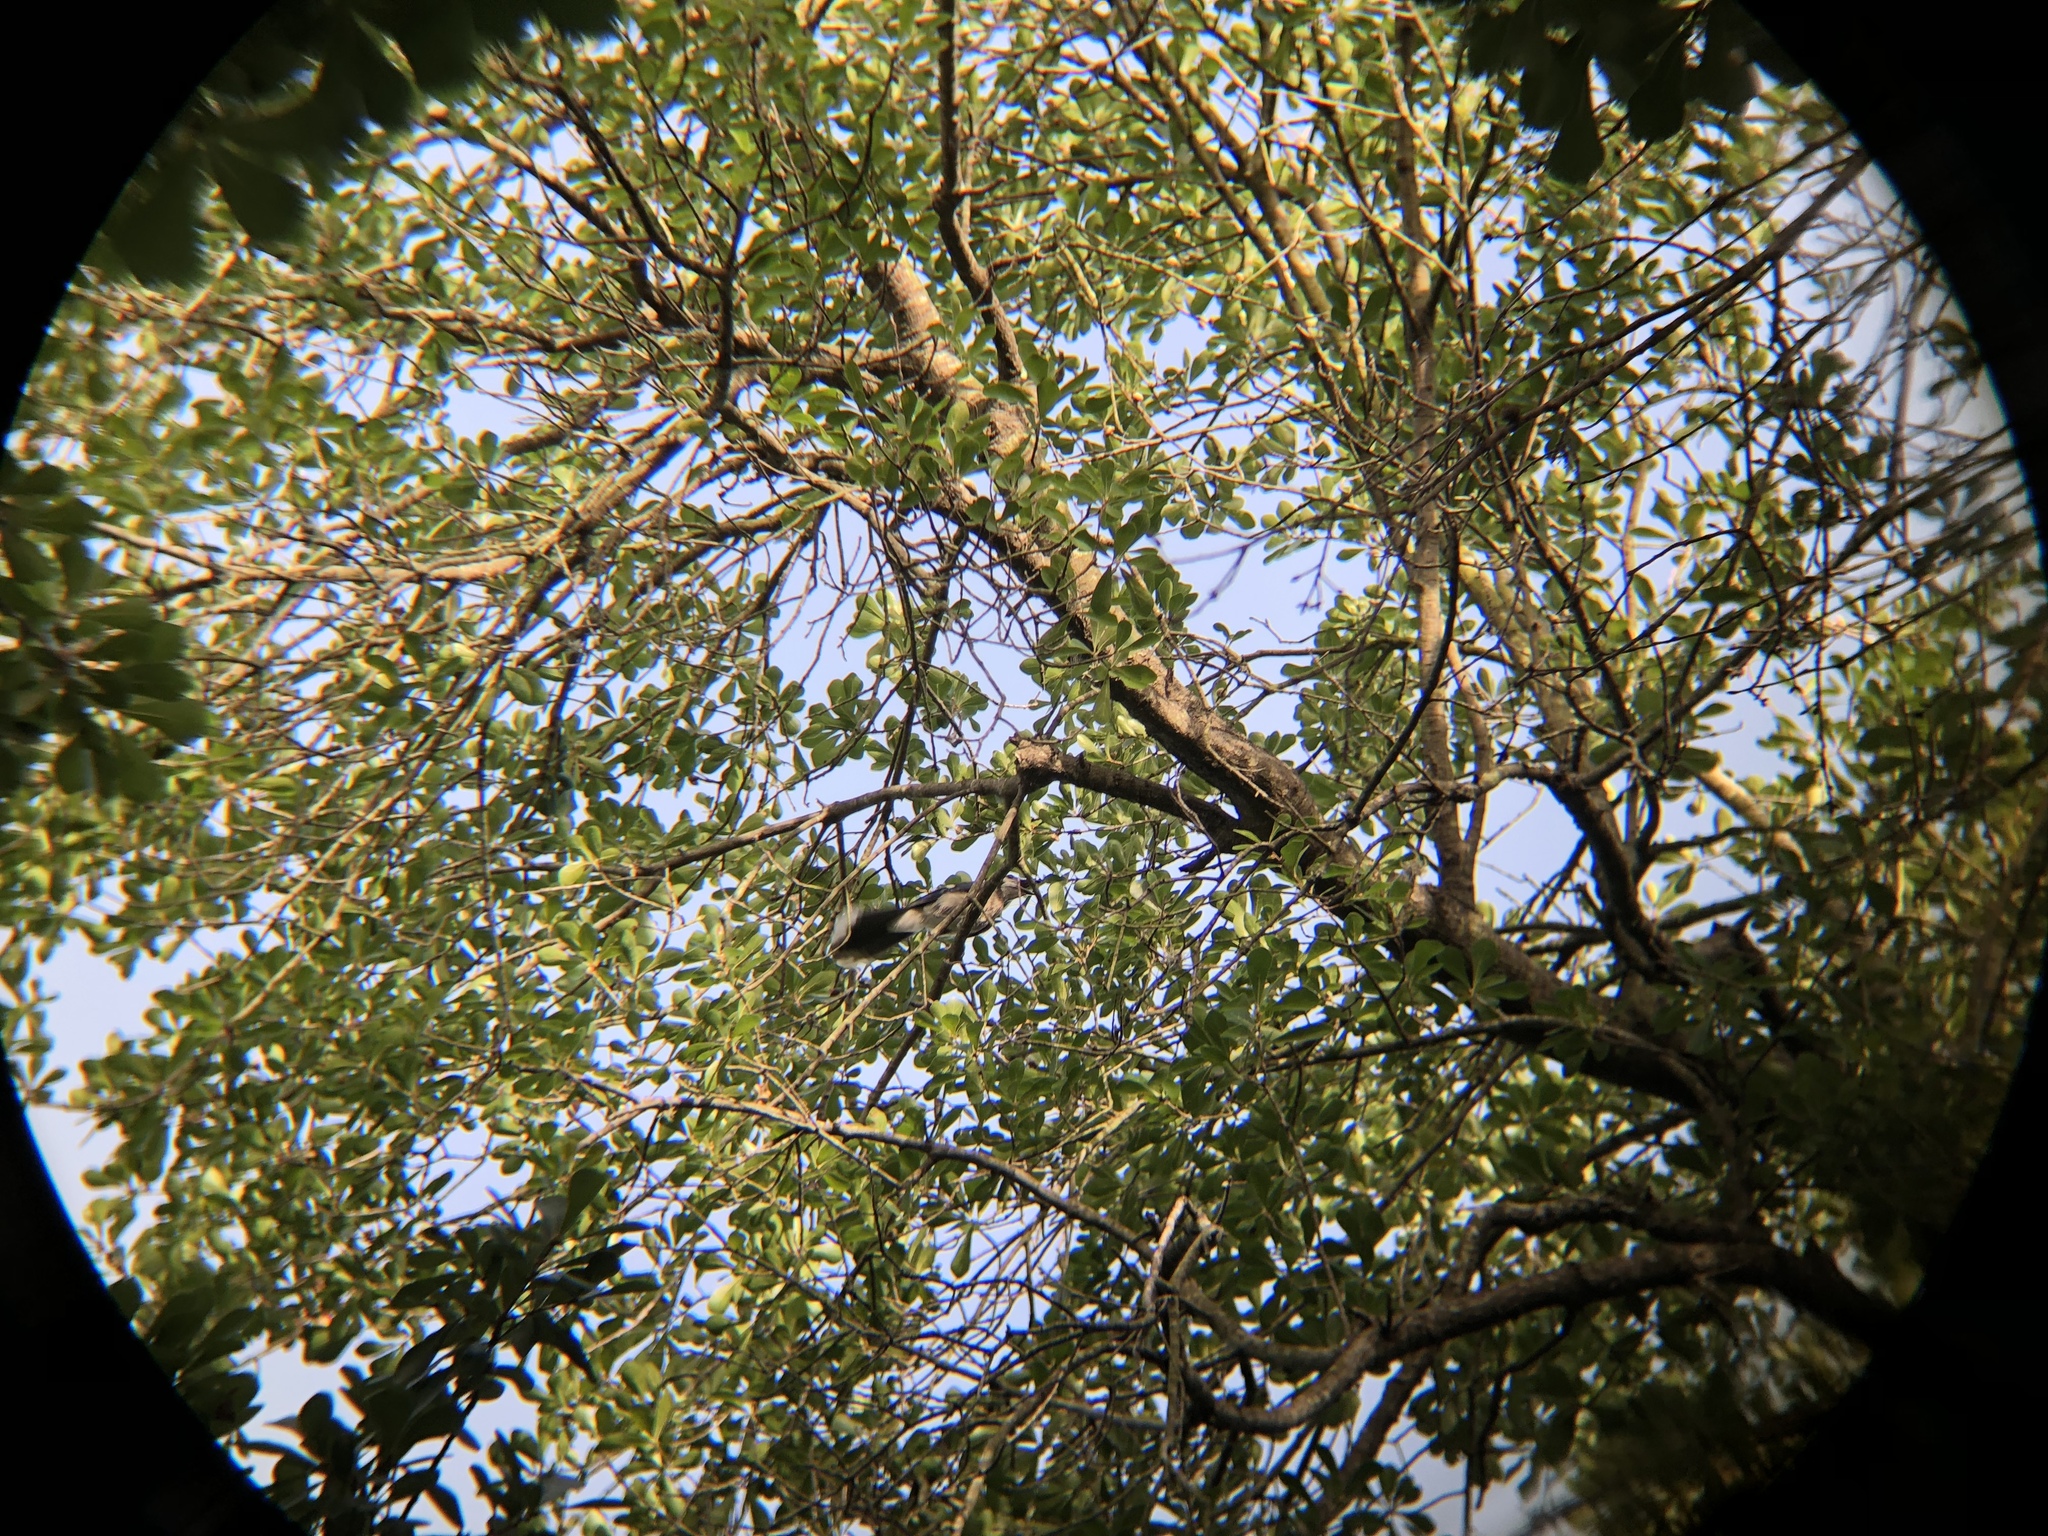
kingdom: Animalia
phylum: Chordata
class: Aves
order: Passeriformes
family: Corvidae
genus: Cyanocitta
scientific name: Cyanocitta cristata
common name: Blue jay
